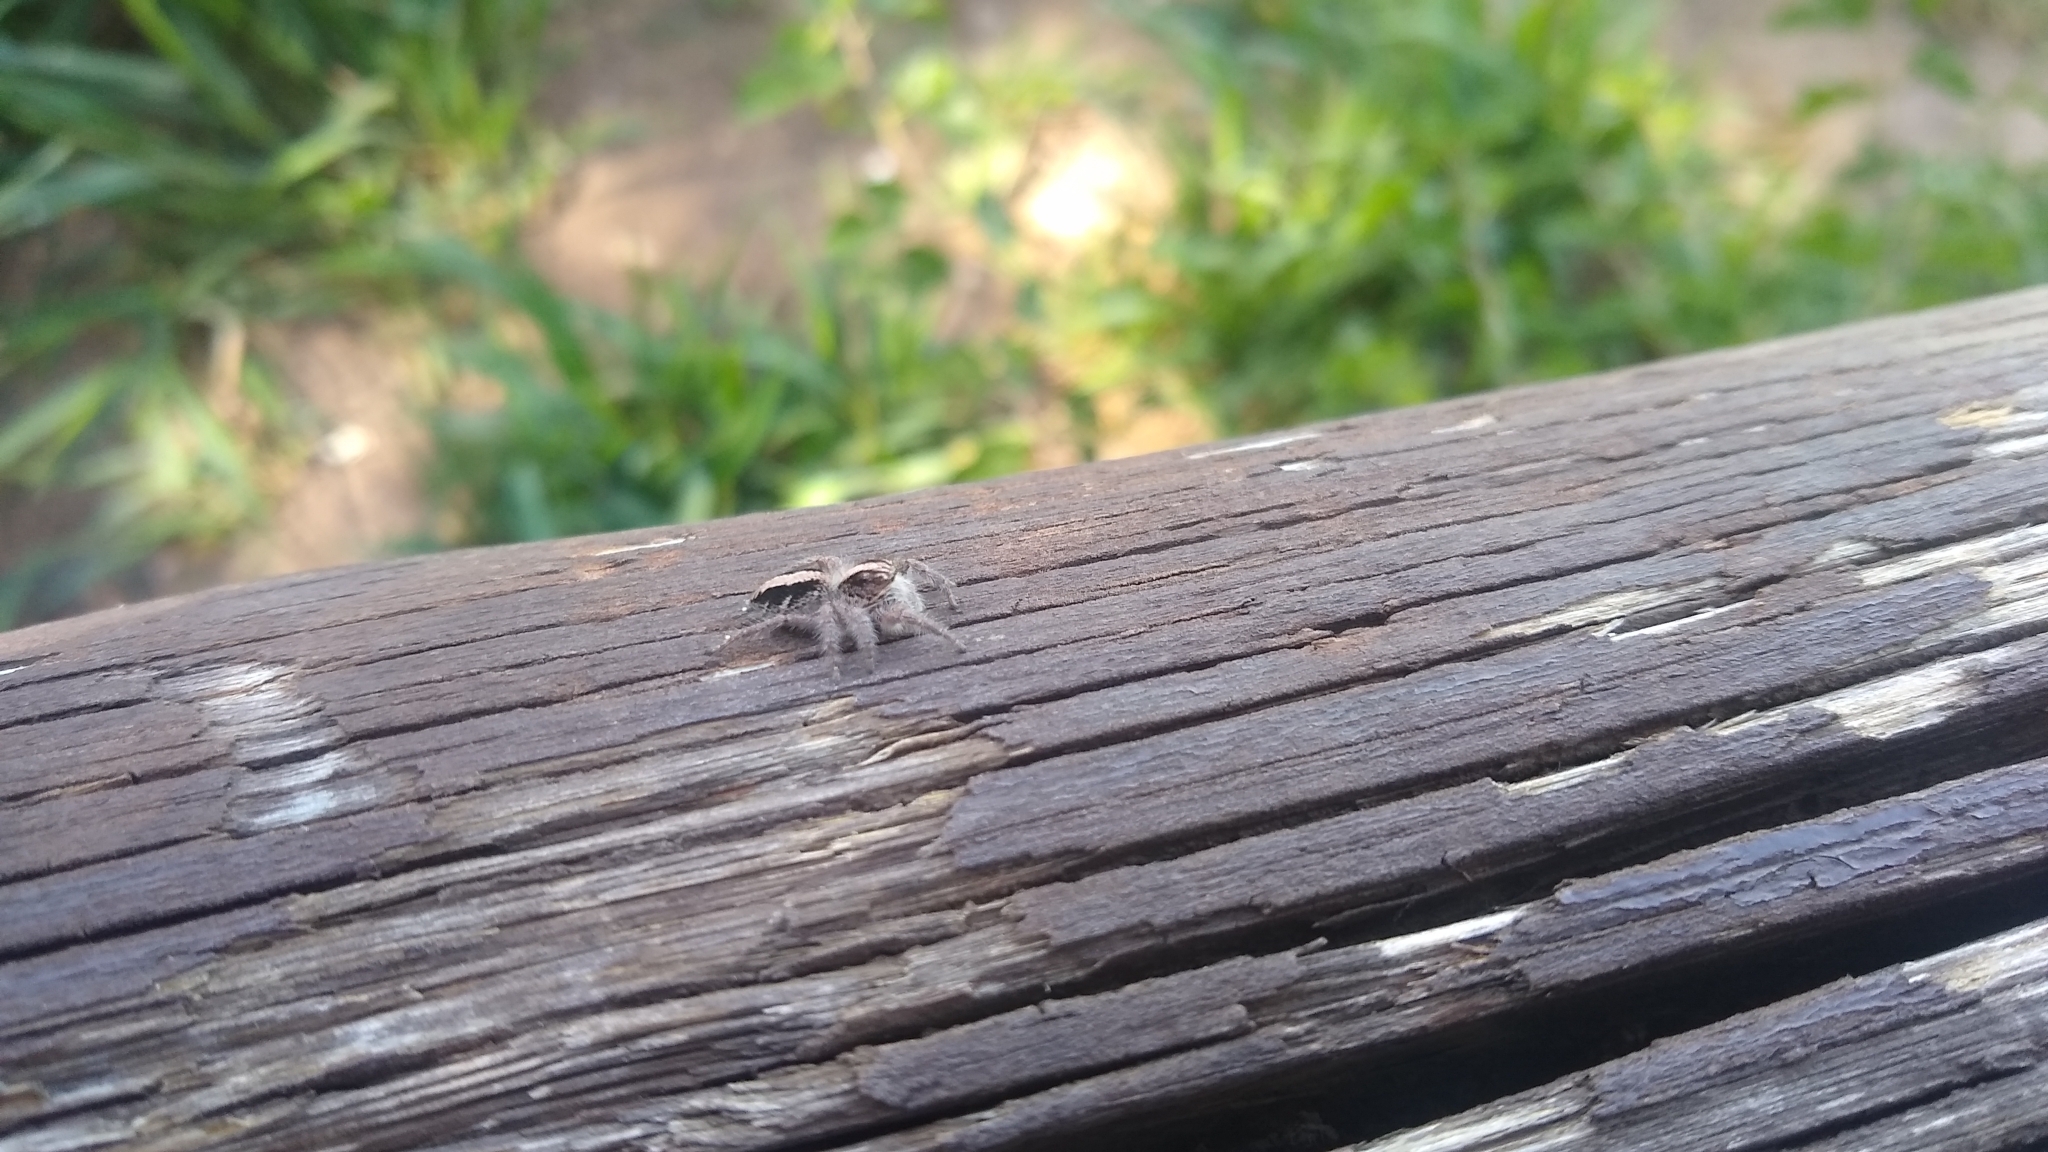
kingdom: Animalia
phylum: Arthropoda
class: Arachnida
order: Araneae
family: Salticidae
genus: Megafreya
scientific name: Megafreya sutrix
